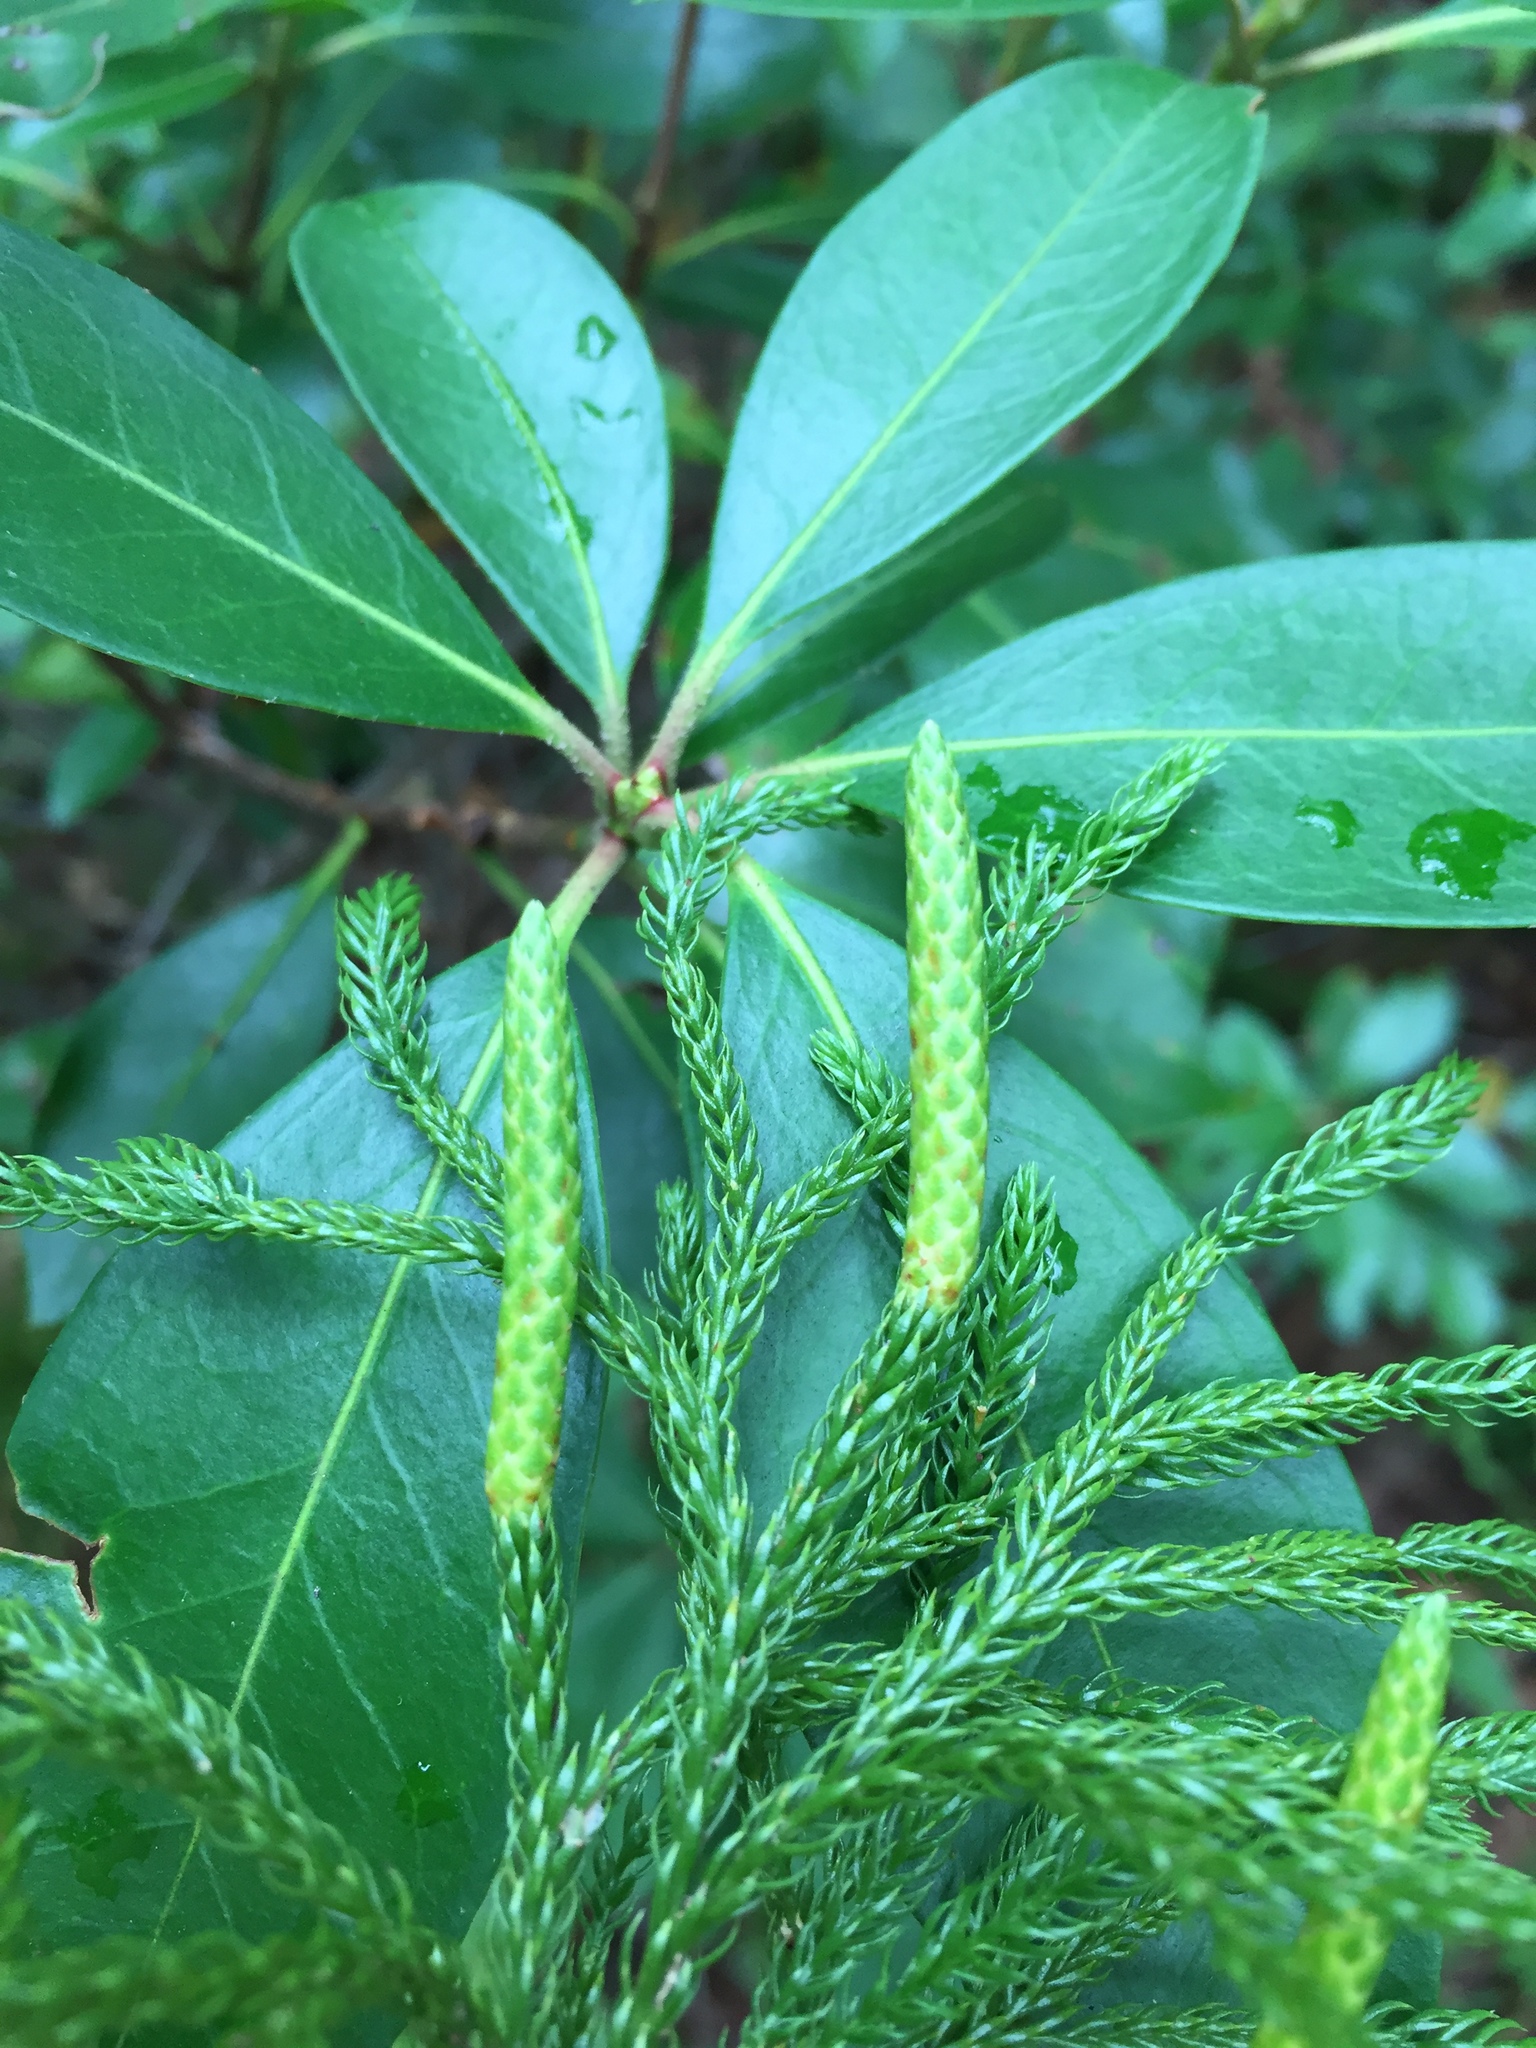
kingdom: Plantae
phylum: Tracheophyta
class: Lycopodiopsida
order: Lycopodiales
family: Lycopodiaceae
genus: Dendrolycopodium
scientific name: Dendrolycopodium hickeyi
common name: Hickey's clubmoss
